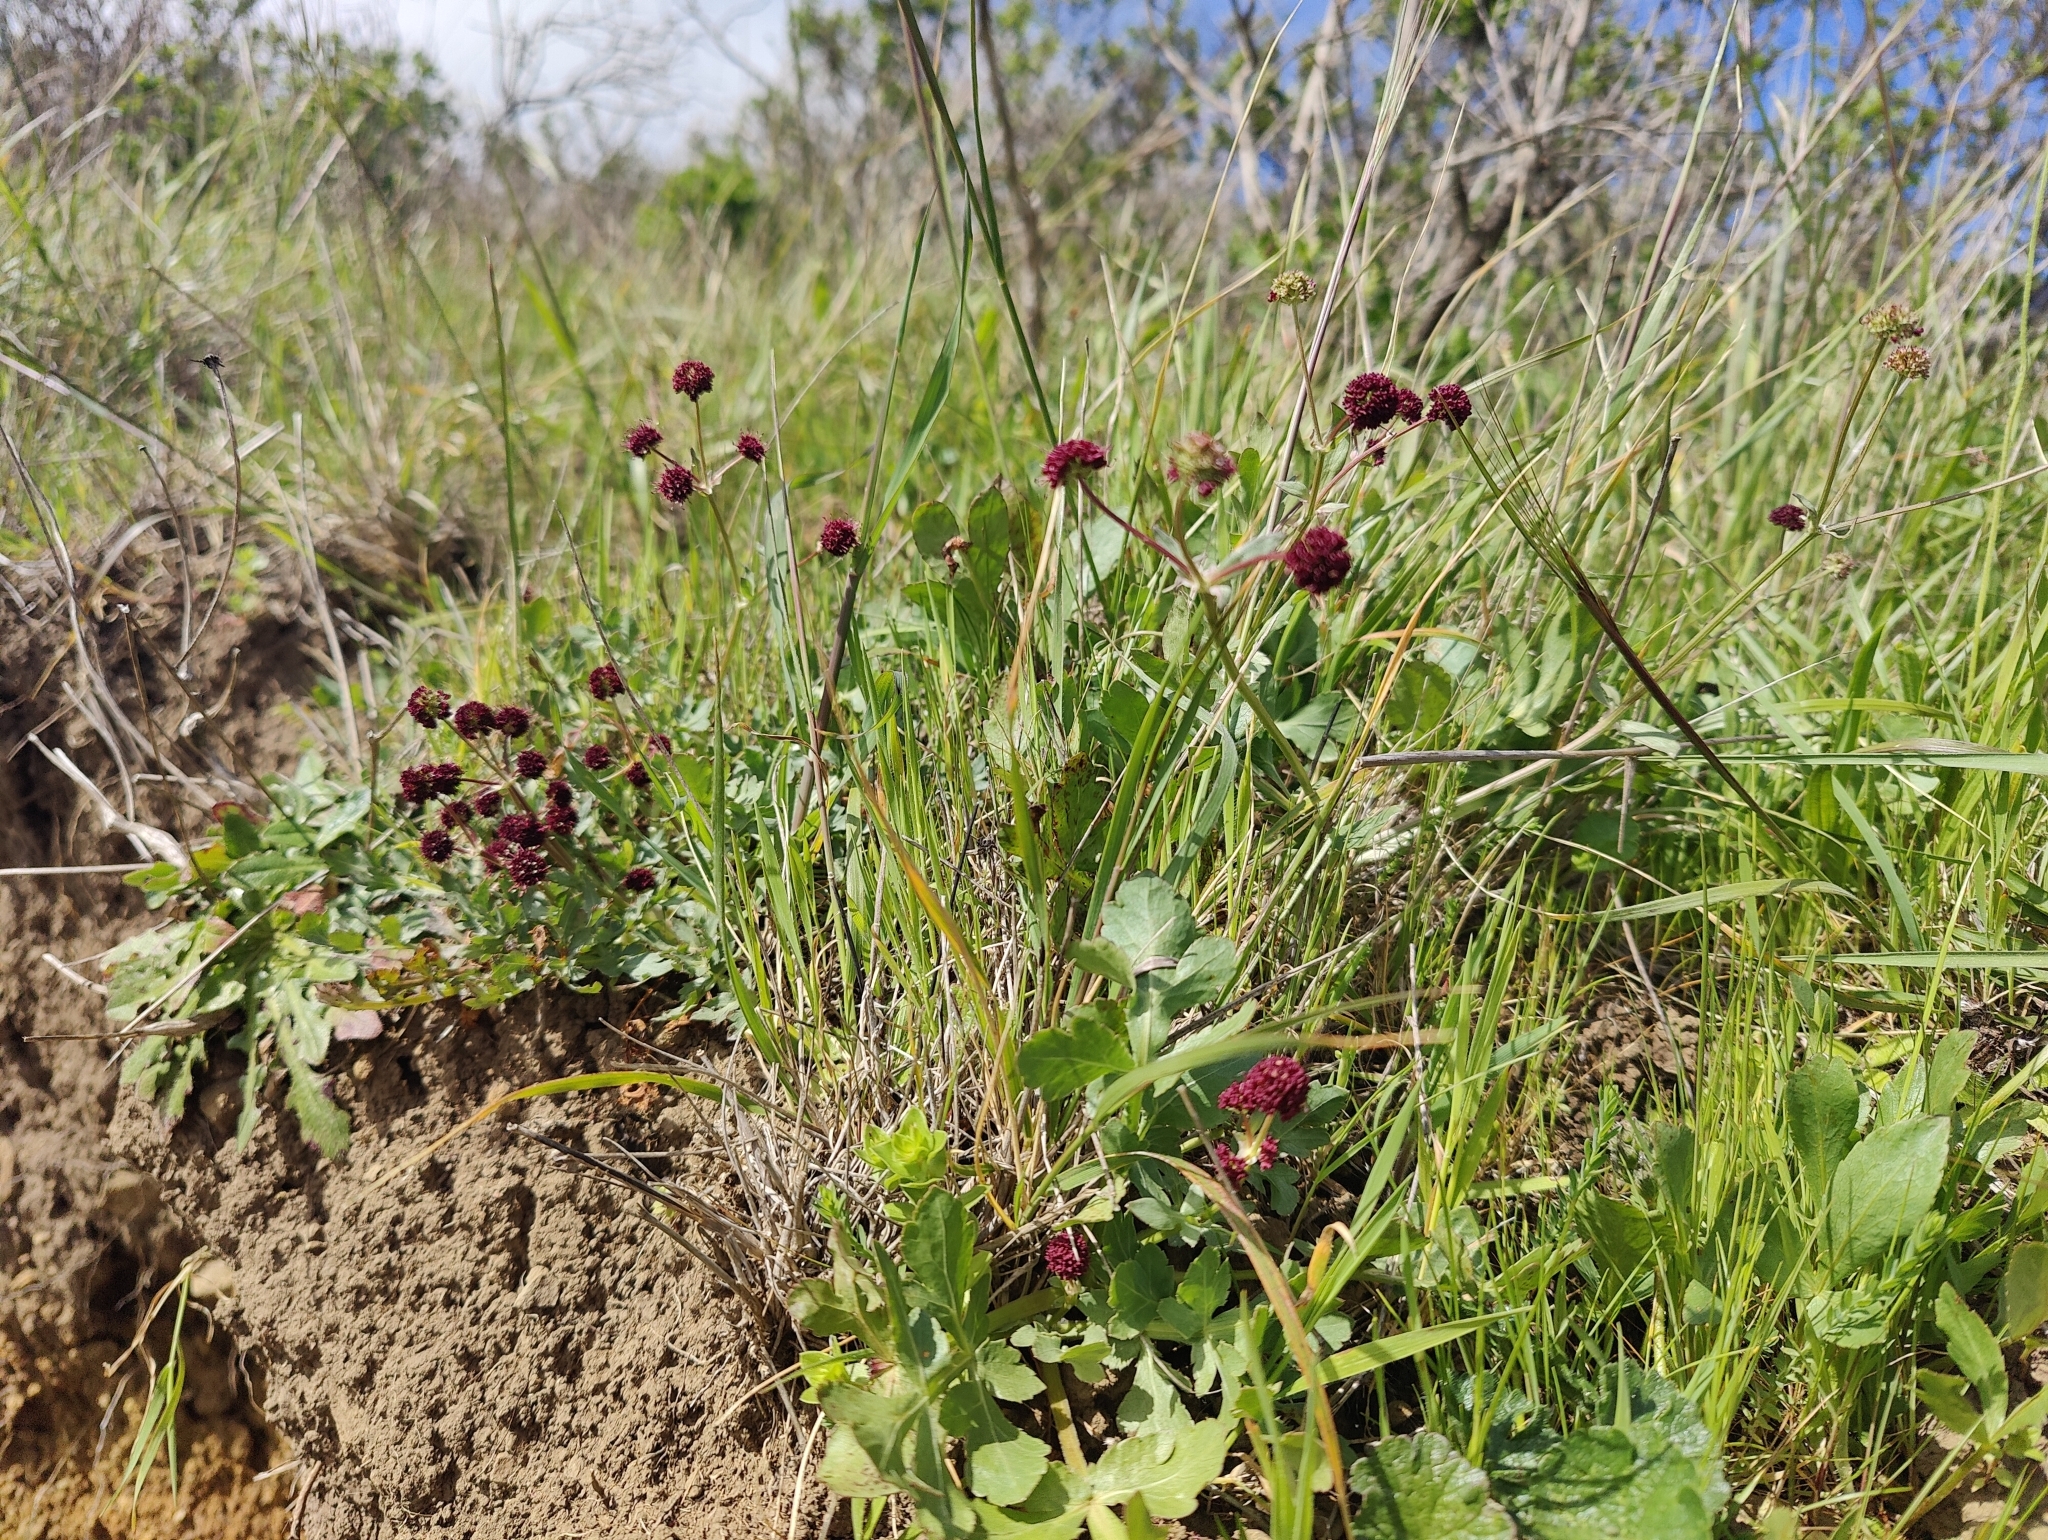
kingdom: Plantae
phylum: Tracheophyta
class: Magnoliopsida
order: Apiales
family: Apiaceae
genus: Sanicula
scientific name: Sanicula bipinnatifida
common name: Shoe-buttons
